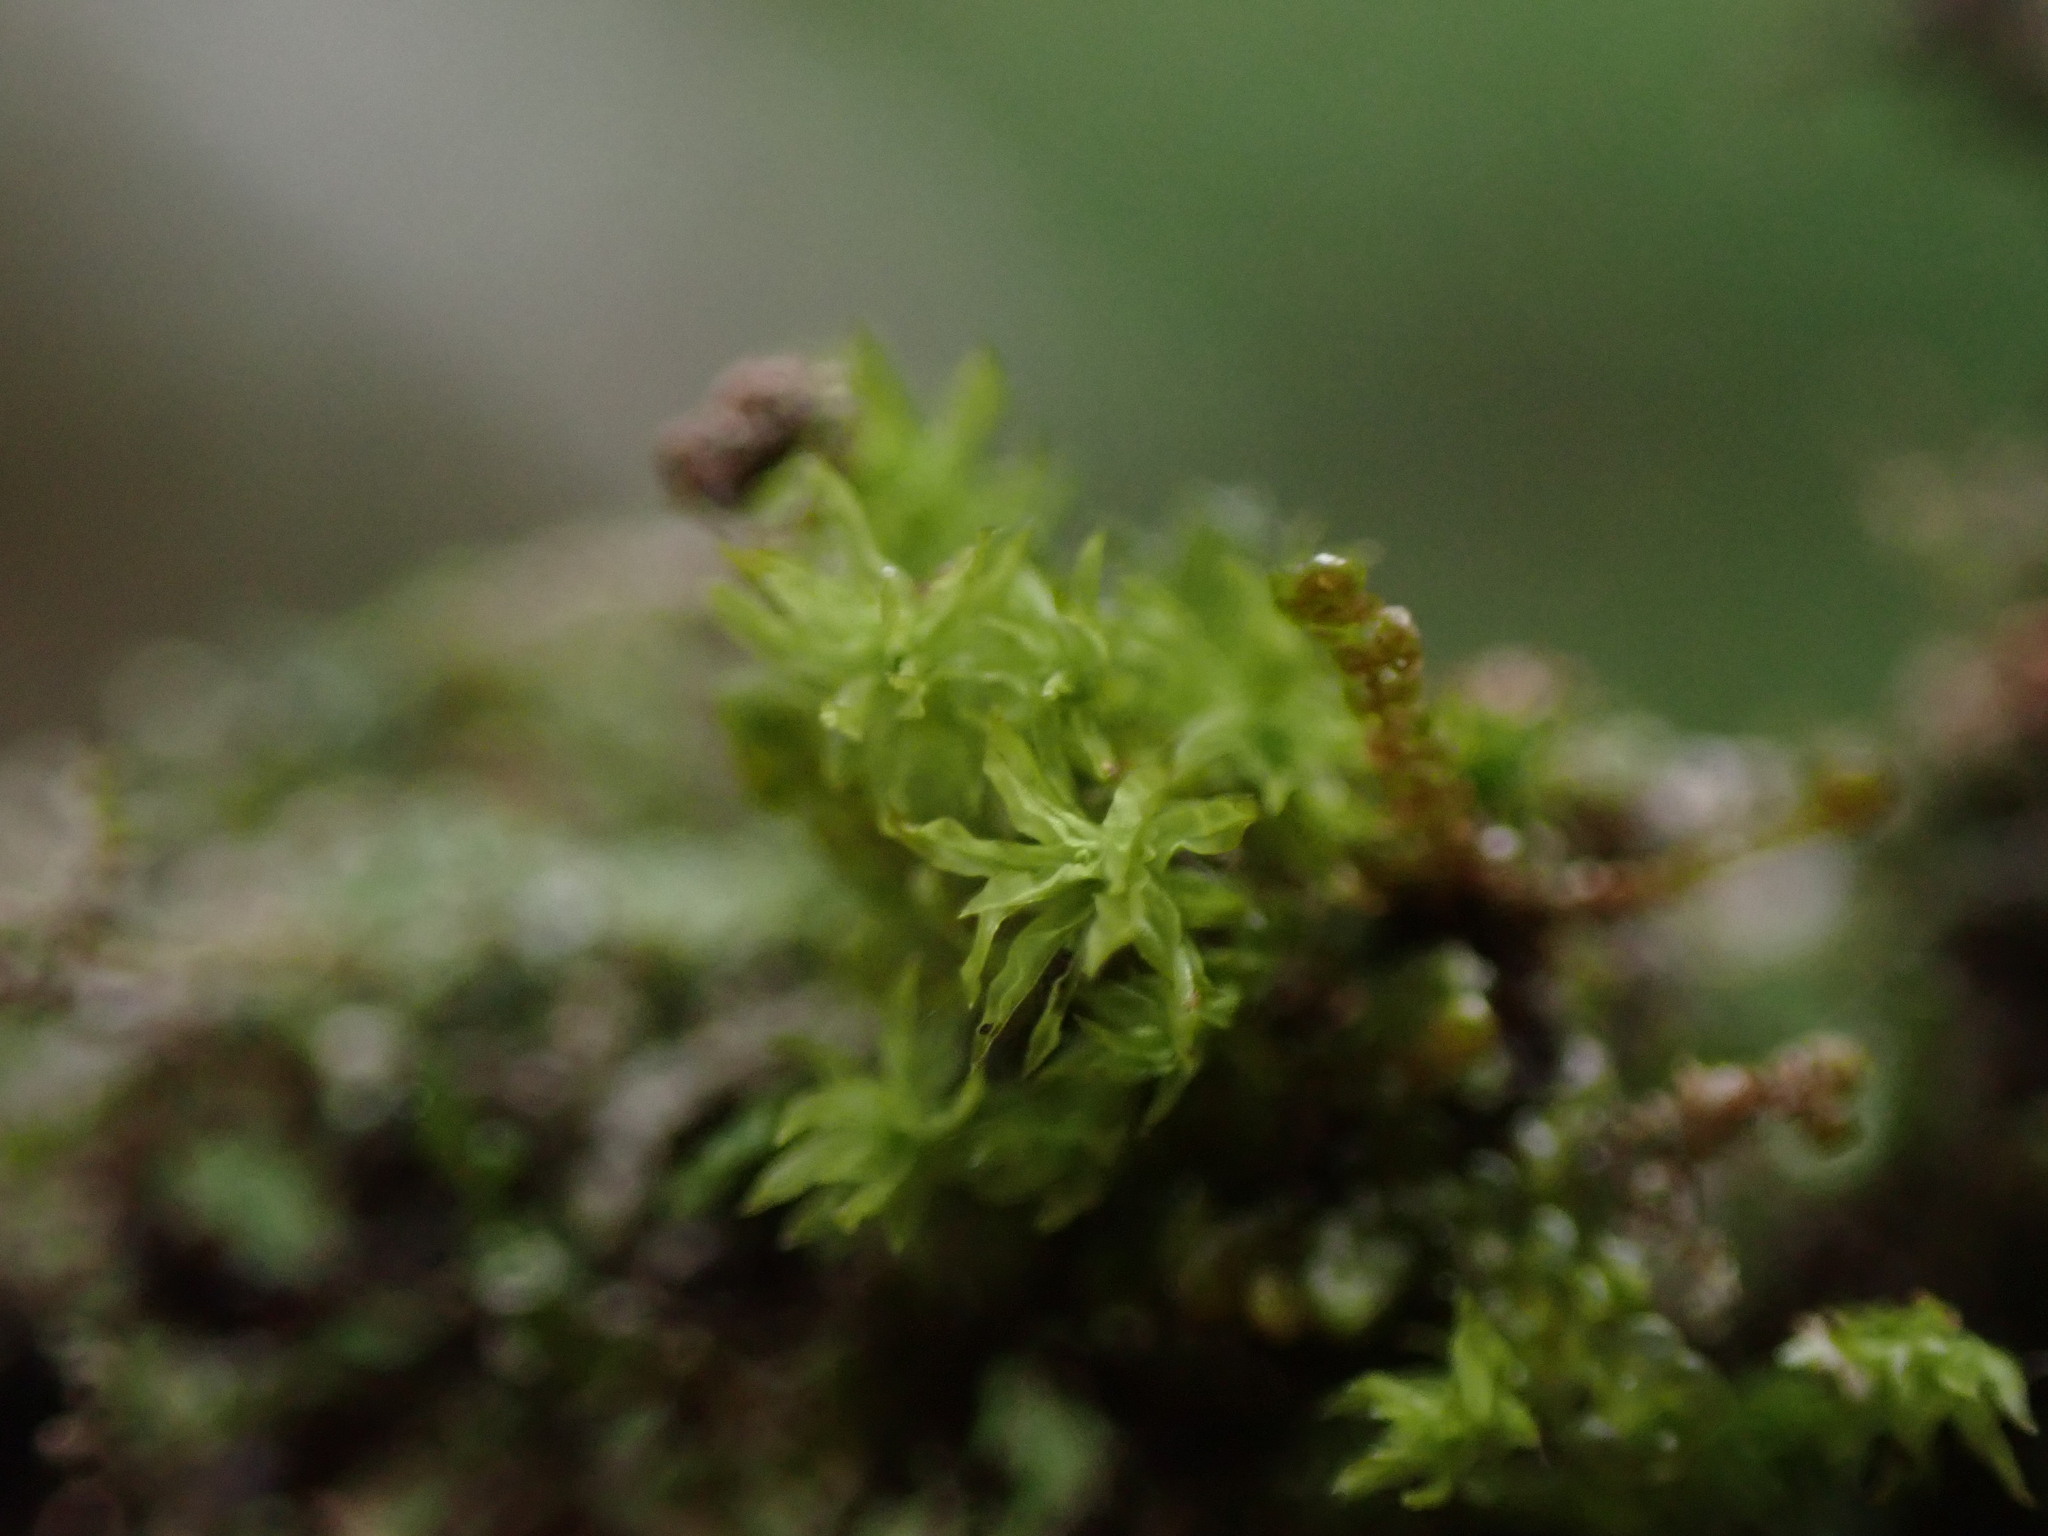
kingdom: Plantae
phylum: Bryophyta
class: Bryopsida
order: Orthotrichales
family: Orthotrichaceae
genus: Zygodon
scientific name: Zygodon reinwardtii
